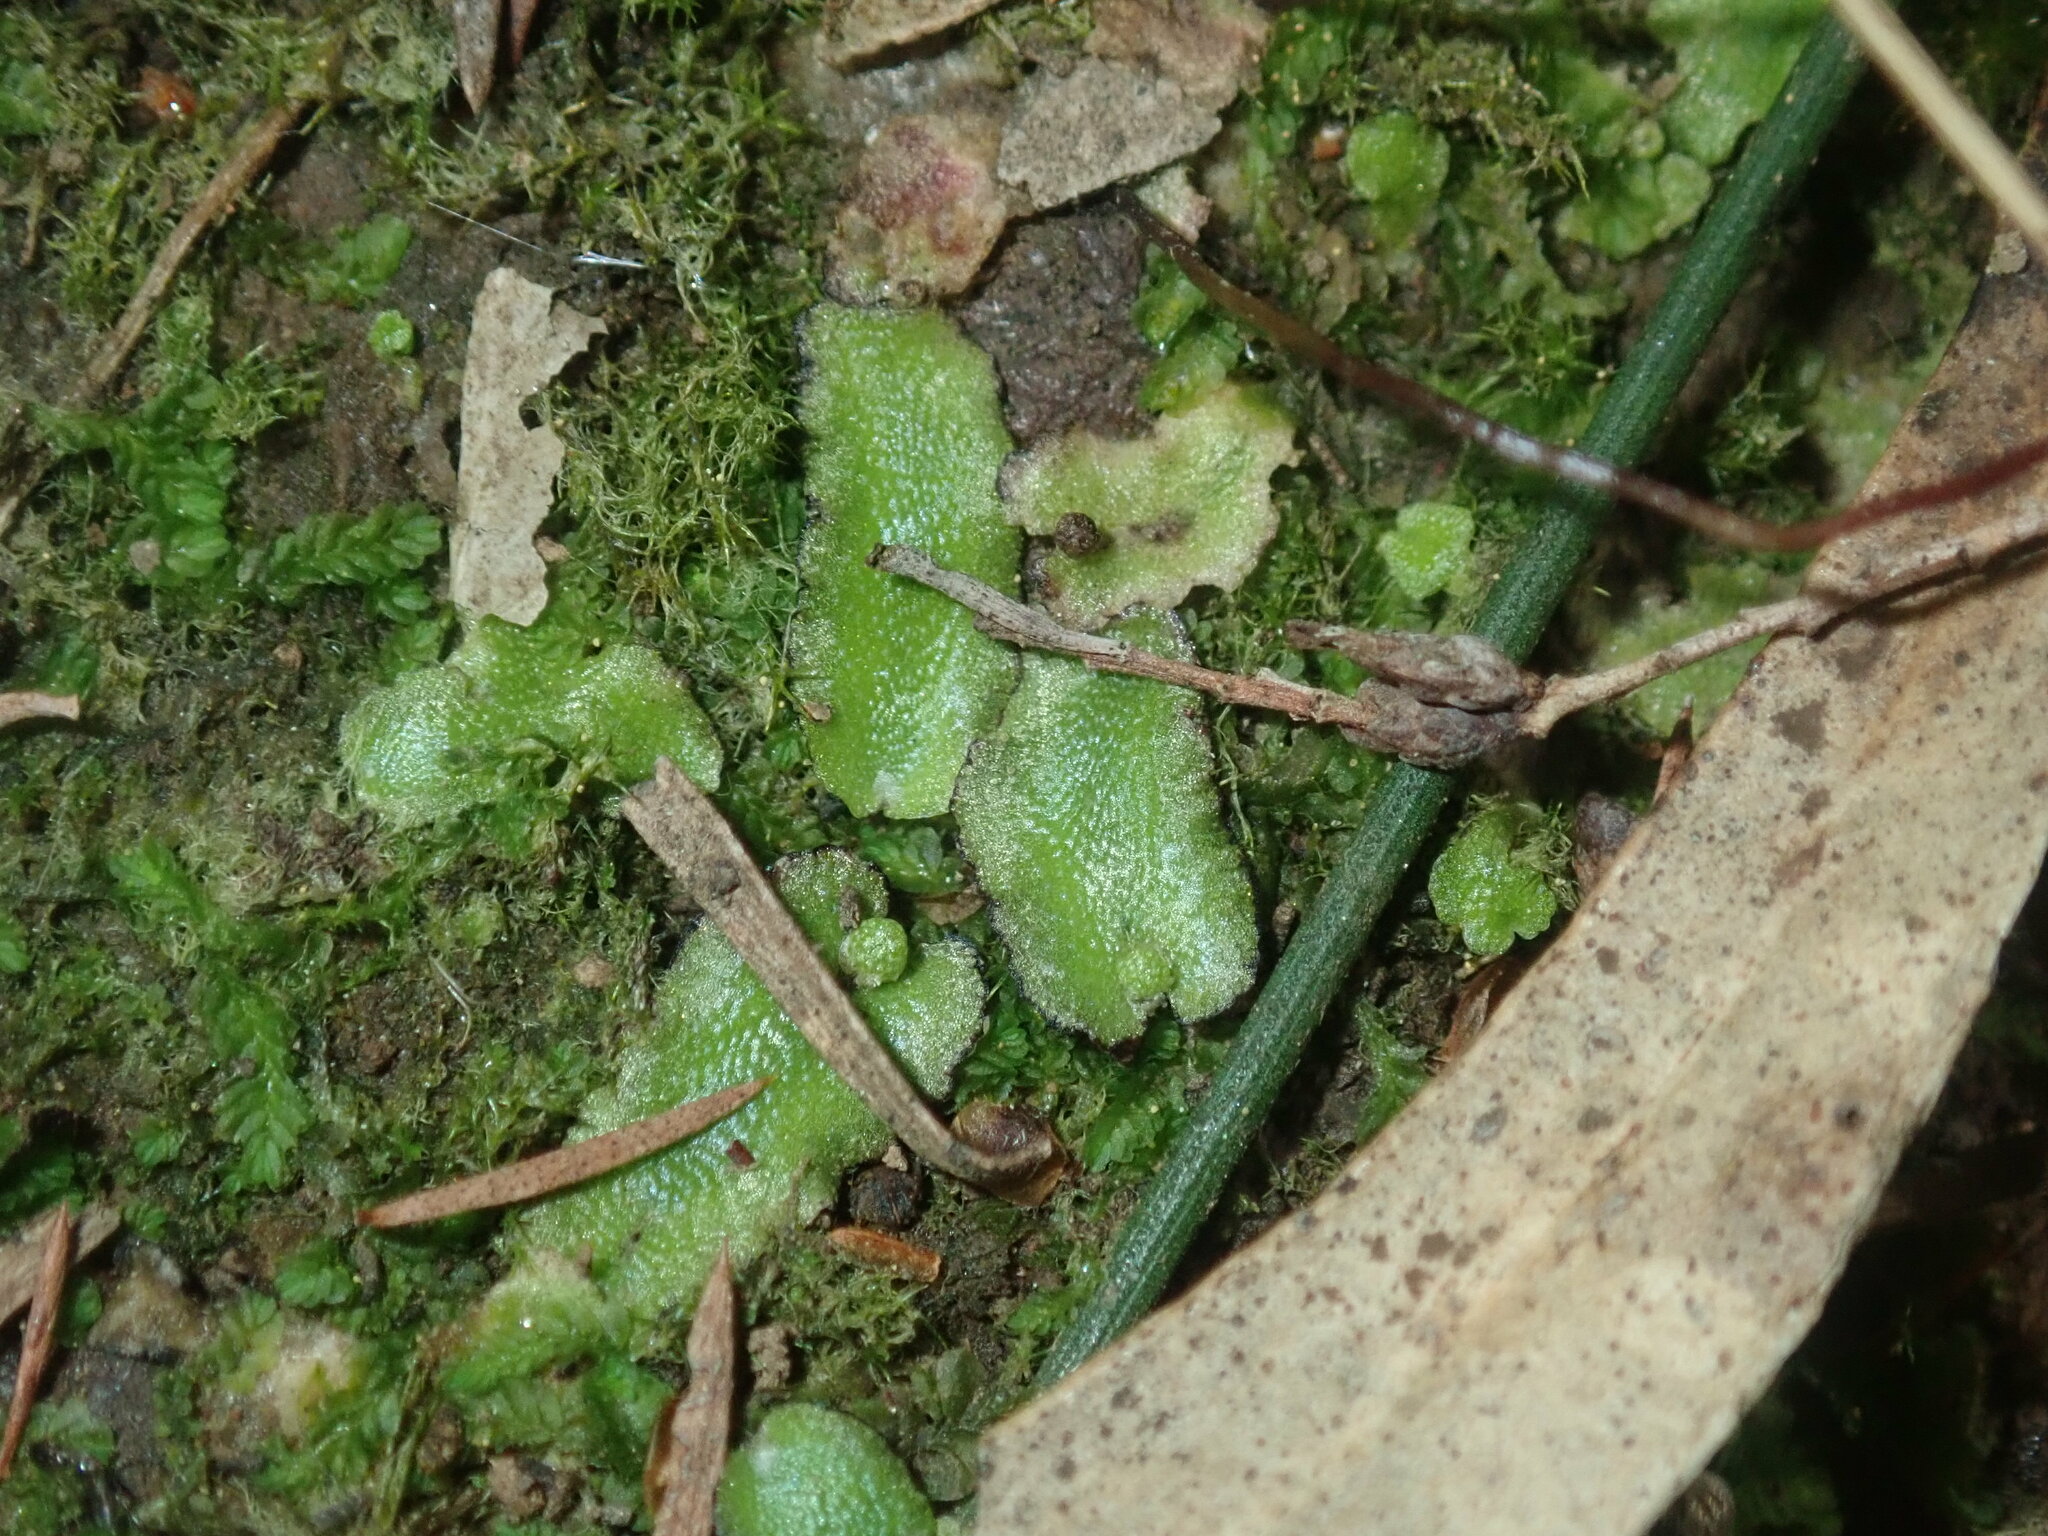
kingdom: Plantae
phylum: Marchantiophyta
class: Marchantiopsida
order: Marchantiales
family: Aytoniaceae
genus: Asterella
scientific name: Asterella drummondii
